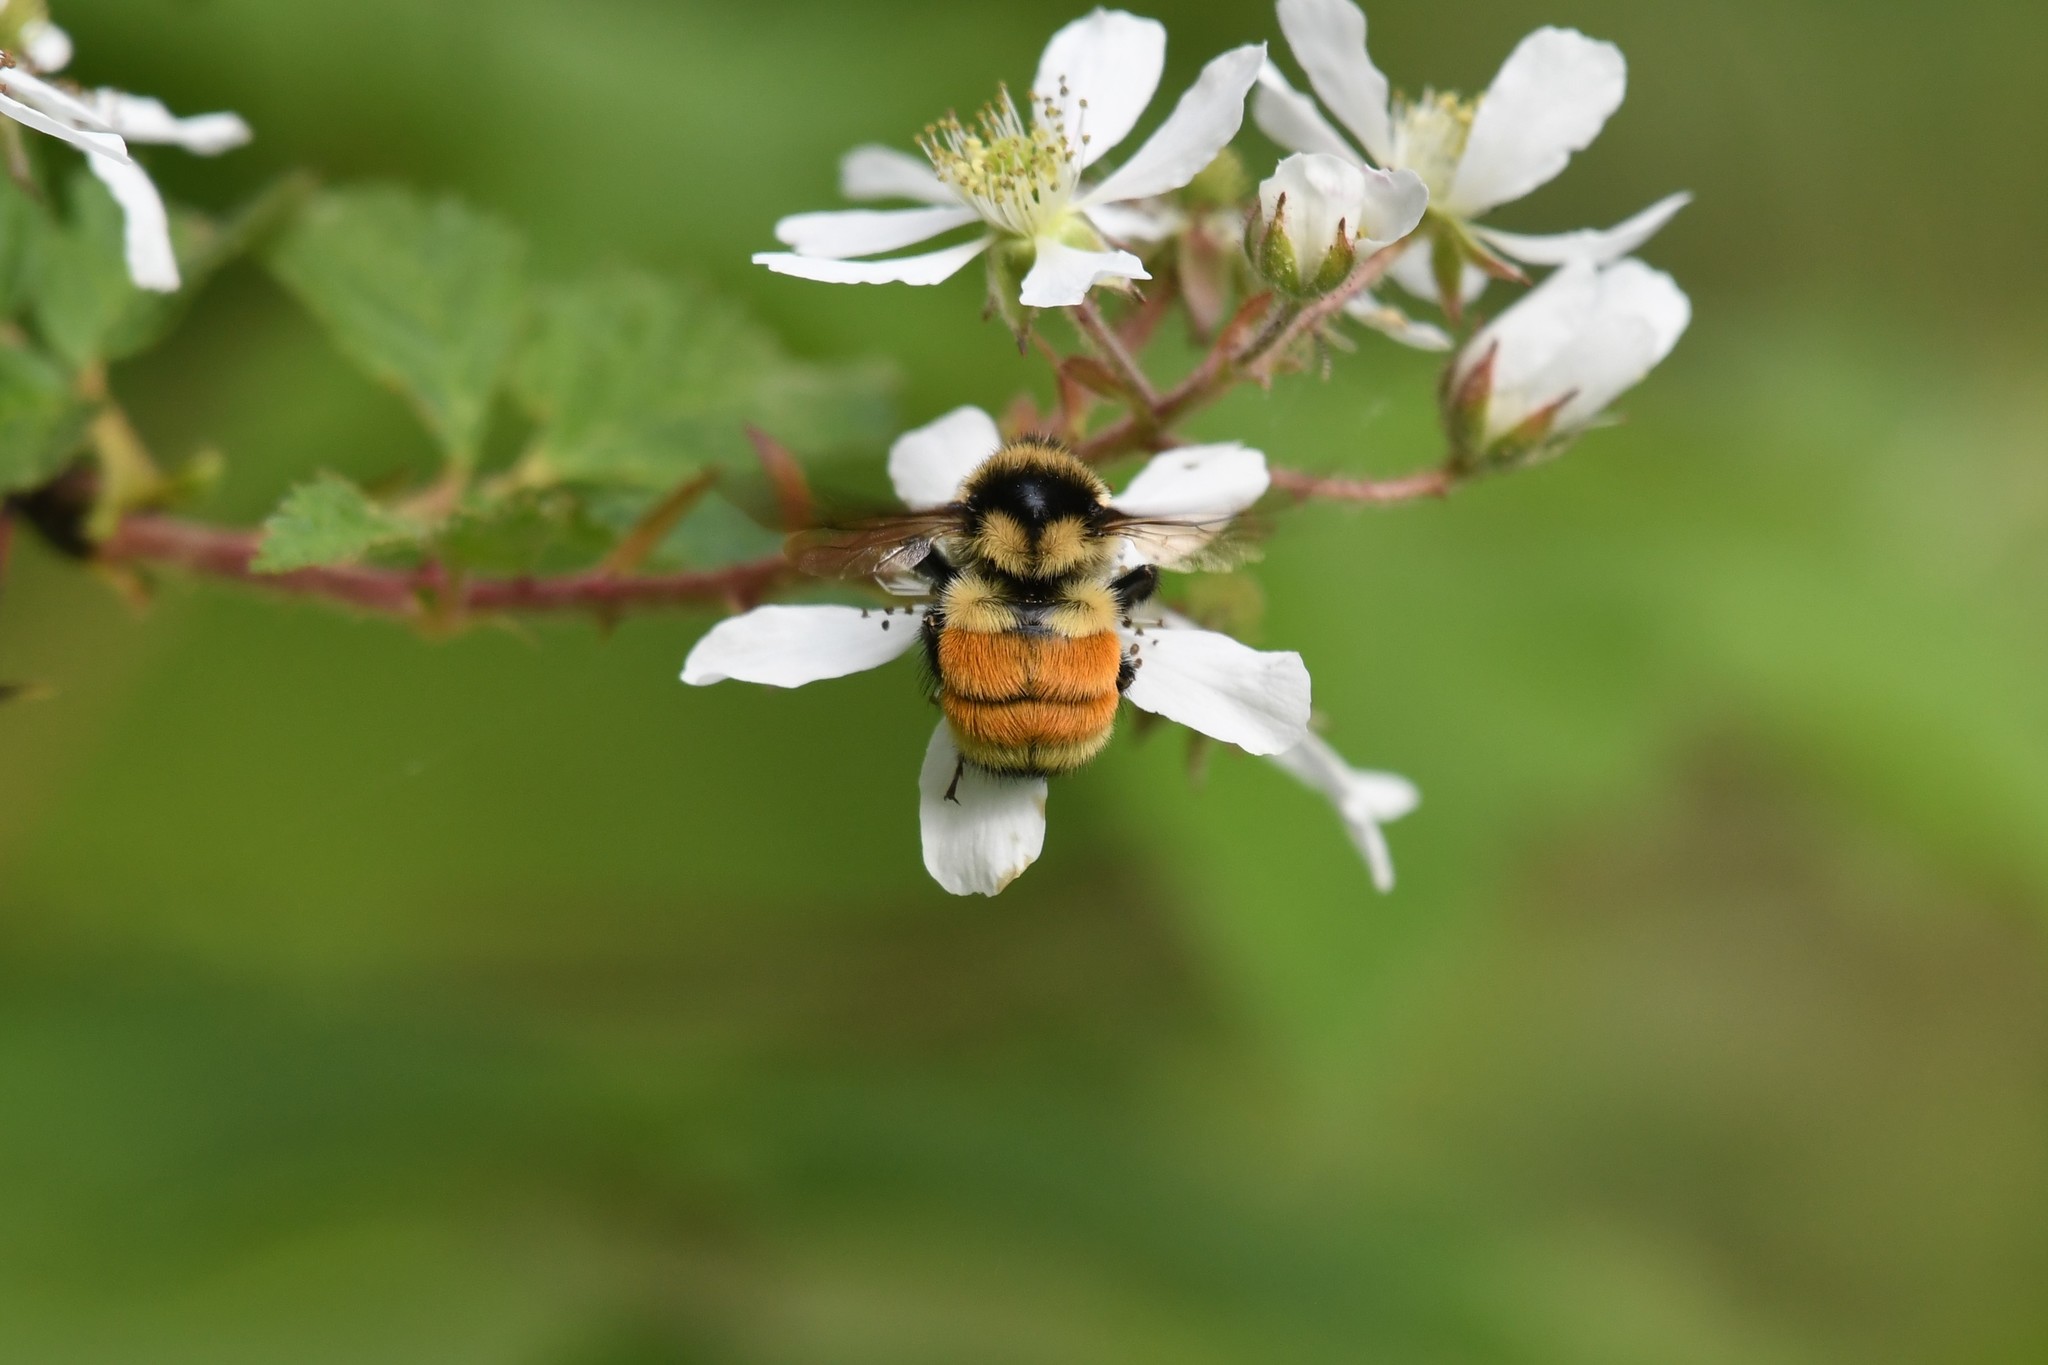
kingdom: Animalia
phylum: Arthropoda
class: Insecta
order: Hymenoptera
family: Apidae
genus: Bombus
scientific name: Bombus ternarius
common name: Tri-colored bumble bee
